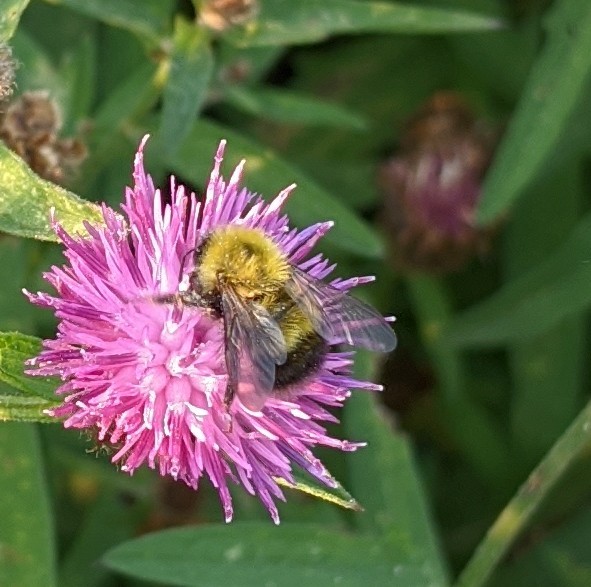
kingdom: Animalia
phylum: Arthropoda
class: Insecta
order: Hymenoptera
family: Apidae
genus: Bombus
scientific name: Bombus perplexus
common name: Confusing bumble bee
